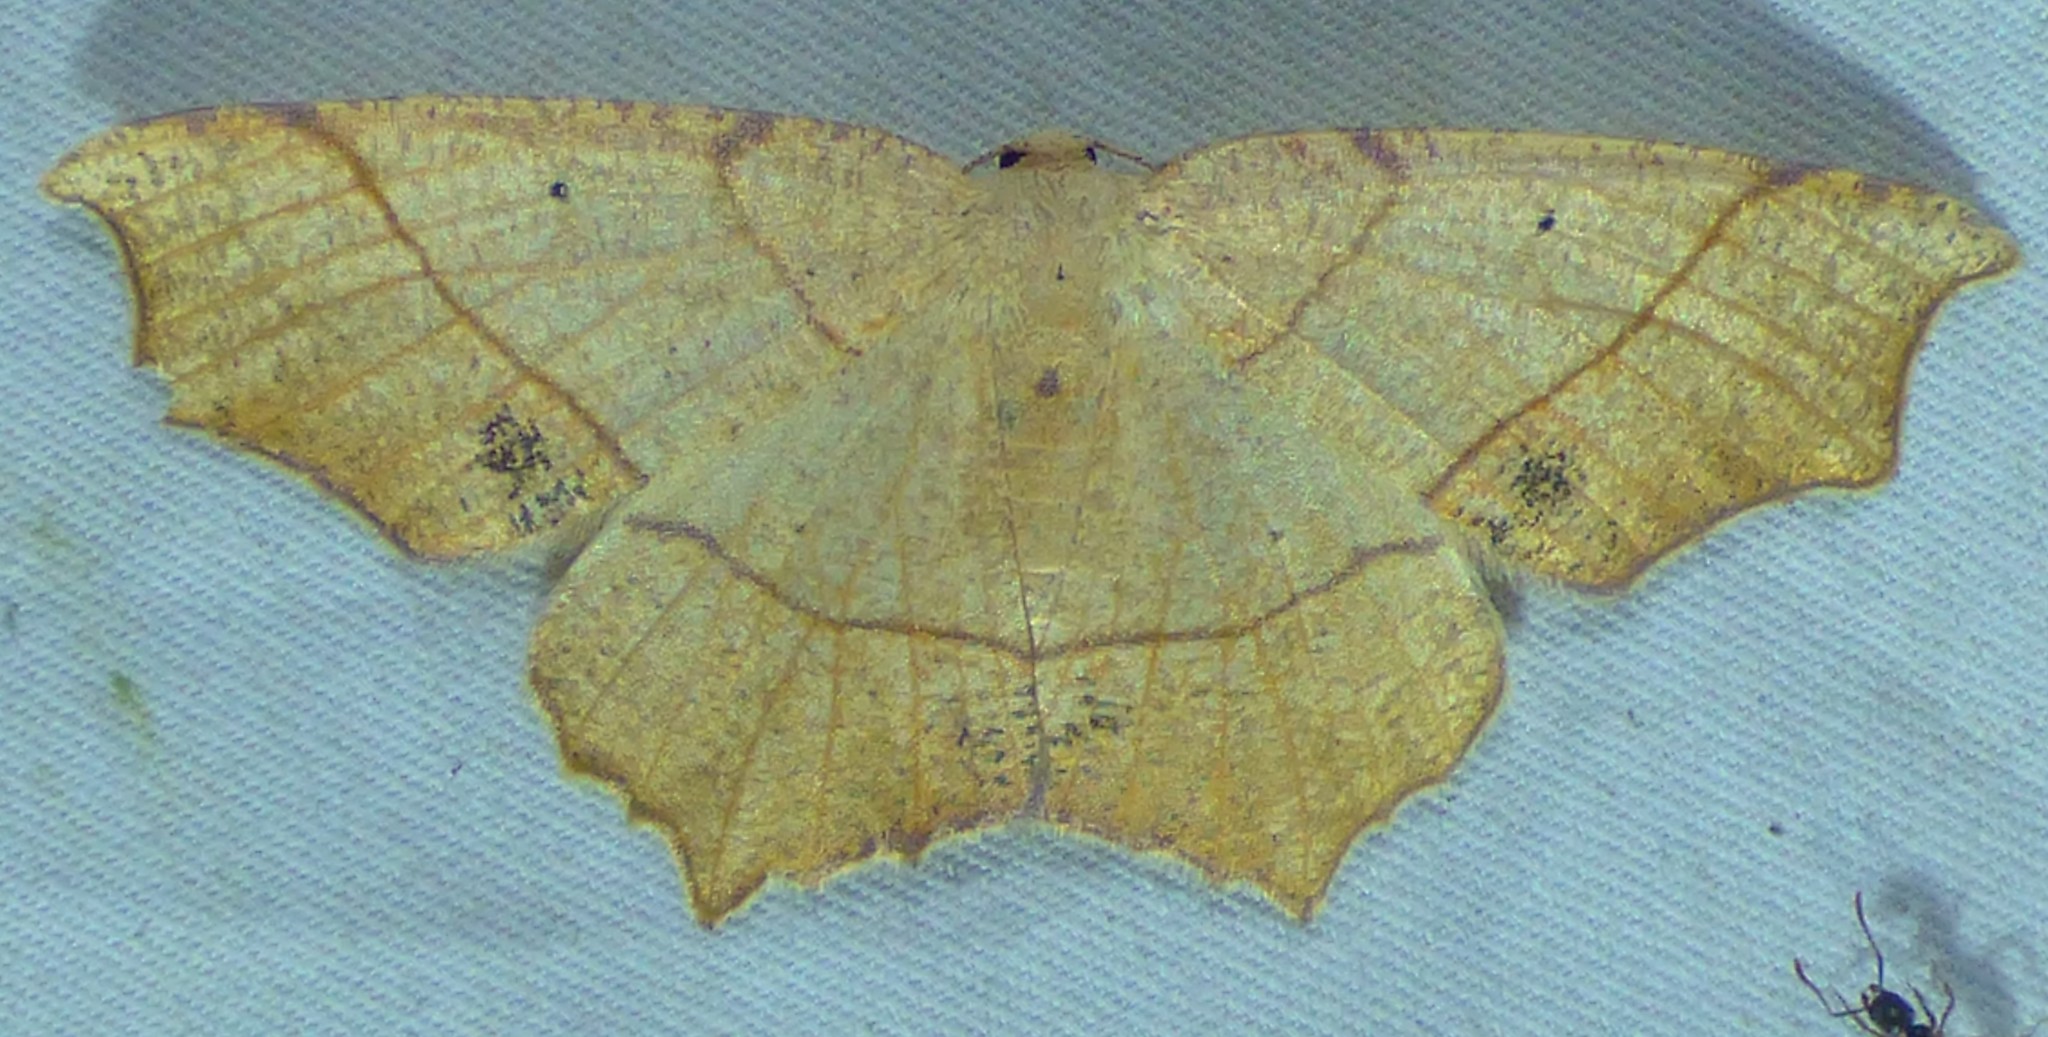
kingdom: Animalia
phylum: Arthropoda
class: Insecta
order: Lepidoptera
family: Geometridae
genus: Besma
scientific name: Besma quercivoraria
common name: Oak besma
